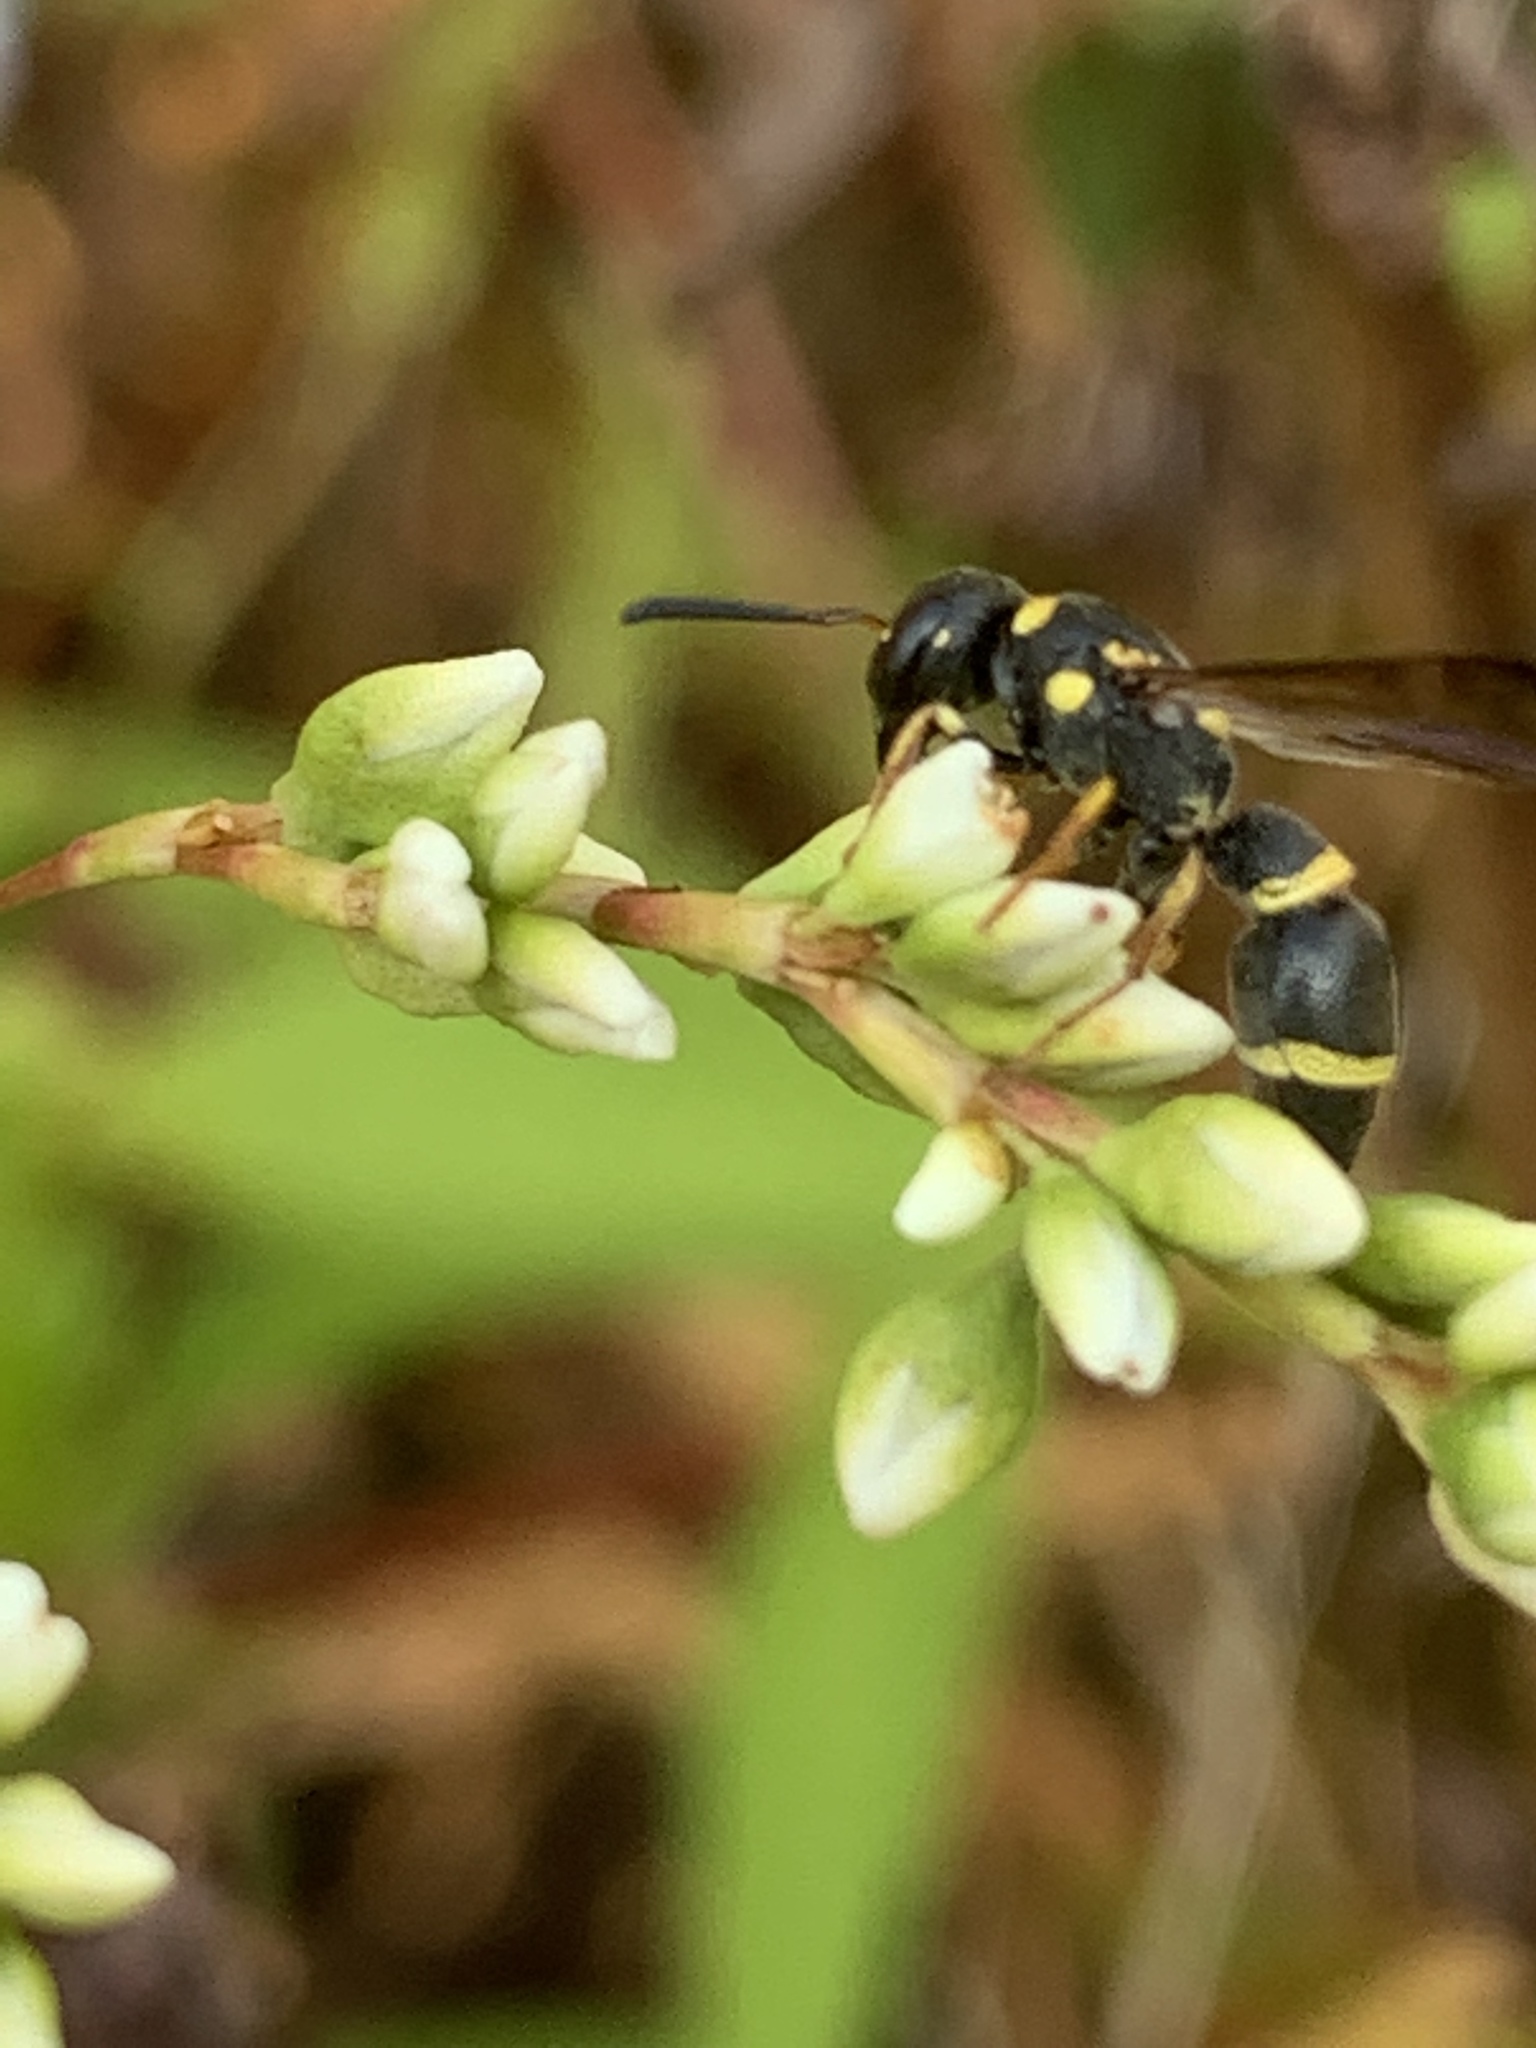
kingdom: Animalia
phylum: Arthropoda
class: Insecta
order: Hymenoptera
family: Eumenidae
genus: Parancistrocerus
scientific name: Parancistrocerus perennis
